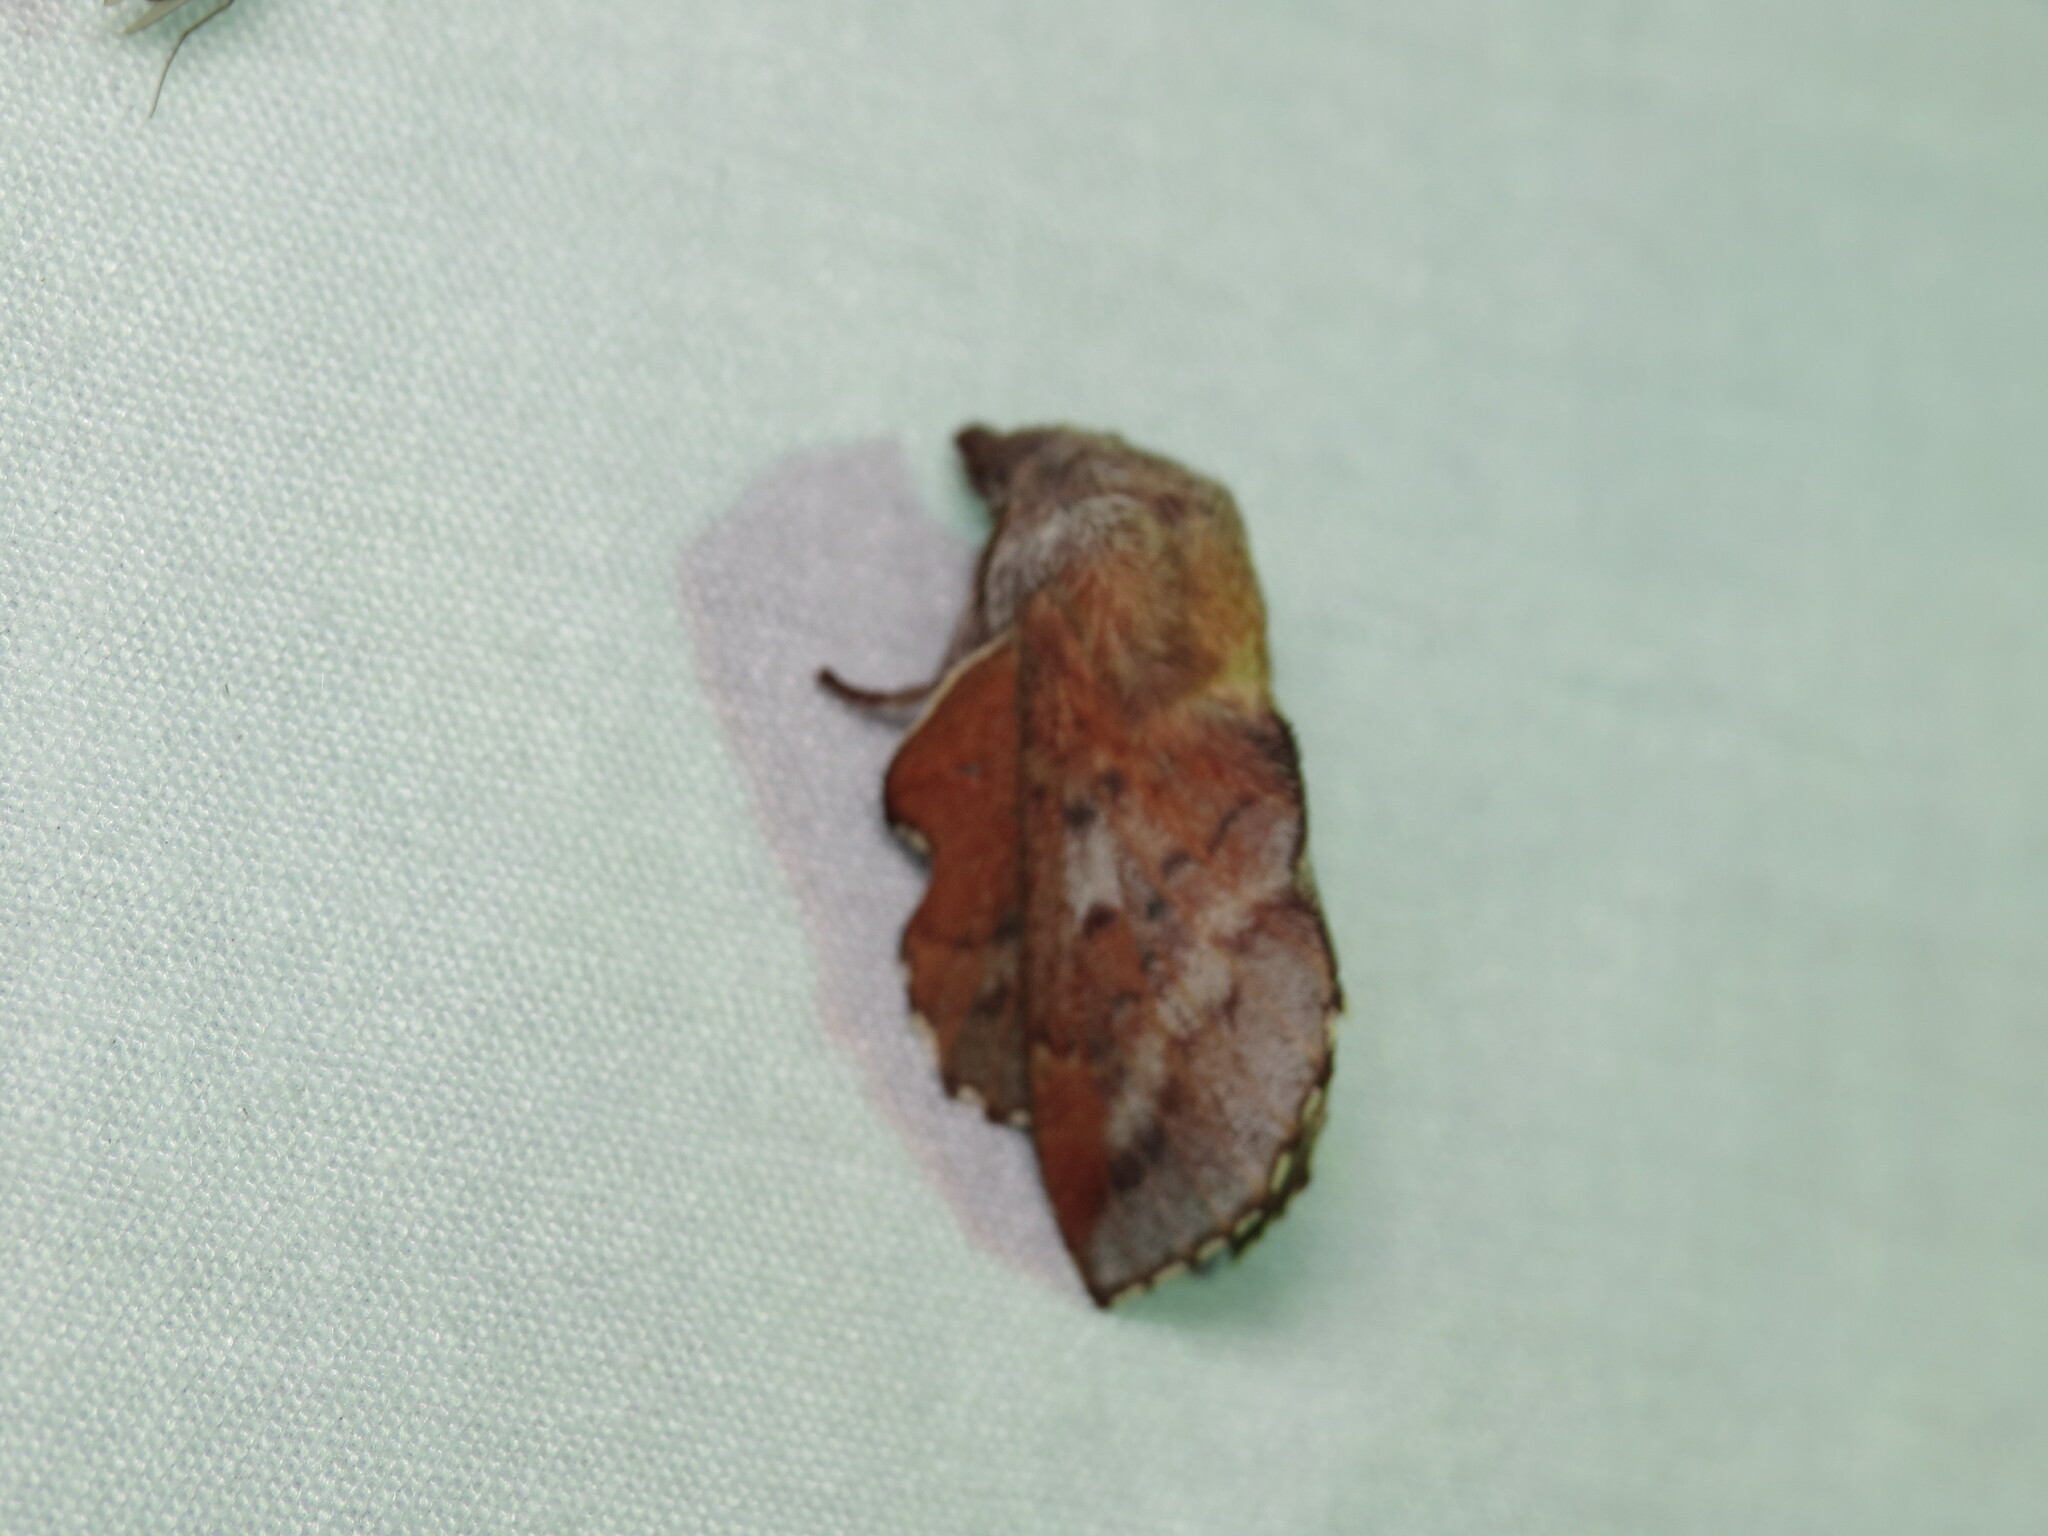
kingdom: Animalia
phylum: Arthropoda
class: Insecta
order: Lepidoptera
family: Lasiocampidae
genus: Phyllodesma
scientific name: Phyllodesma americana
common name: American lappet moth
